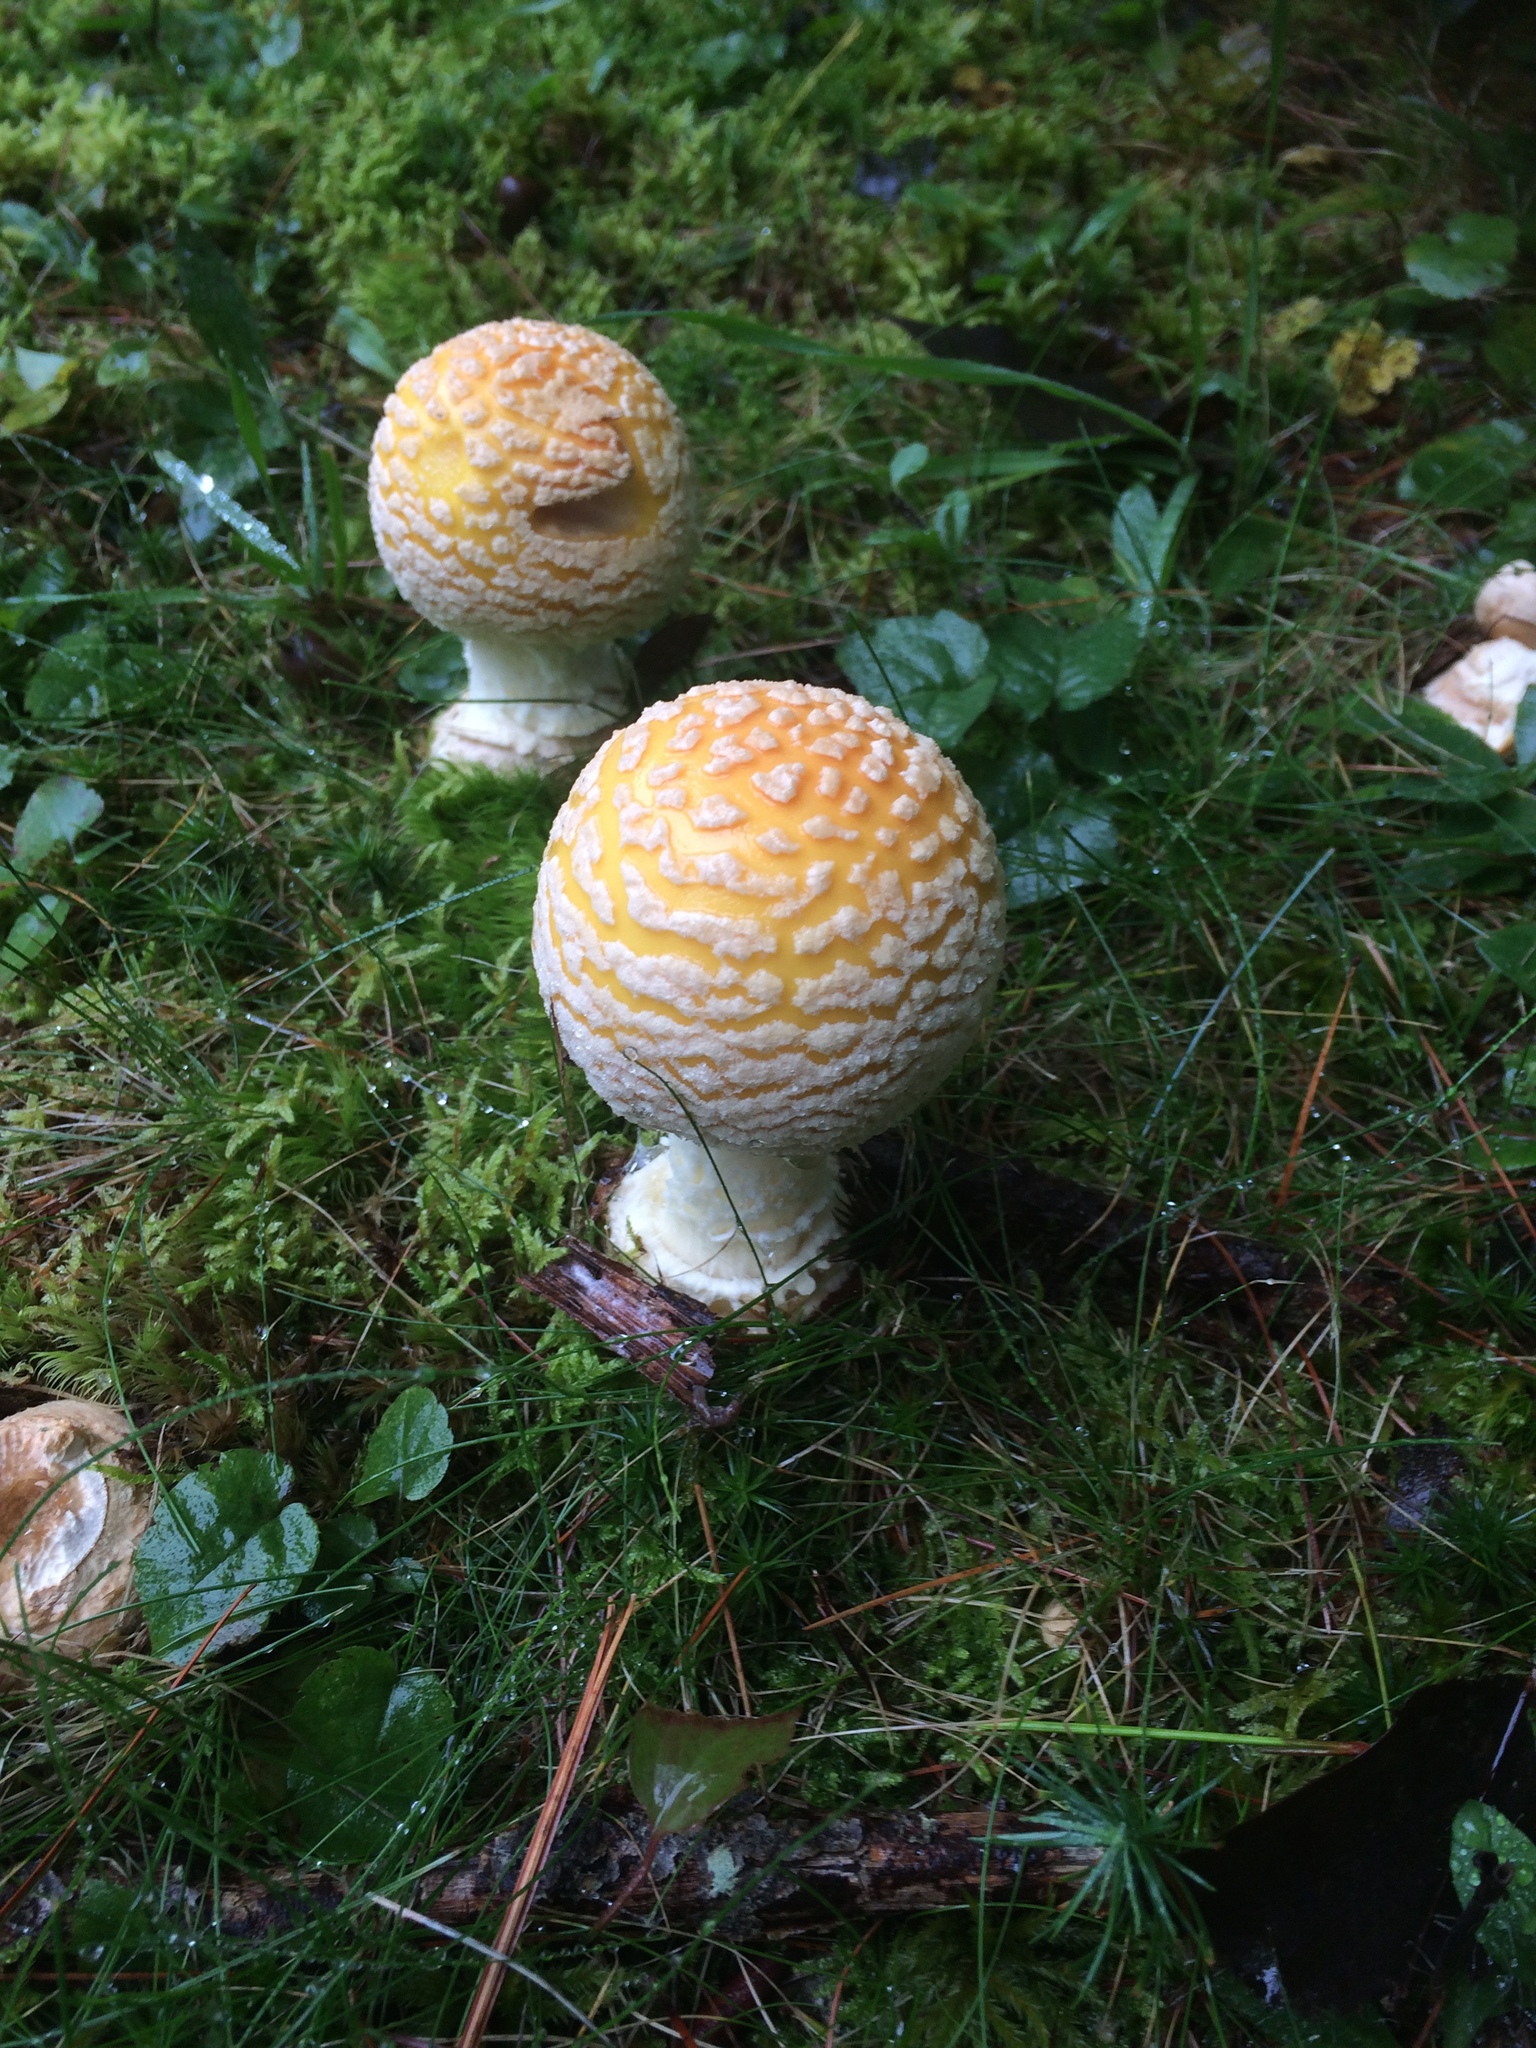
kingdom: Fungi
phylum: Basidiomycota
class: Agaricomycetes
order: Agaricales
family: Amanitaceae
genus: Amanita
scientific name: Amanita muscaria
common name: Fly agaric
